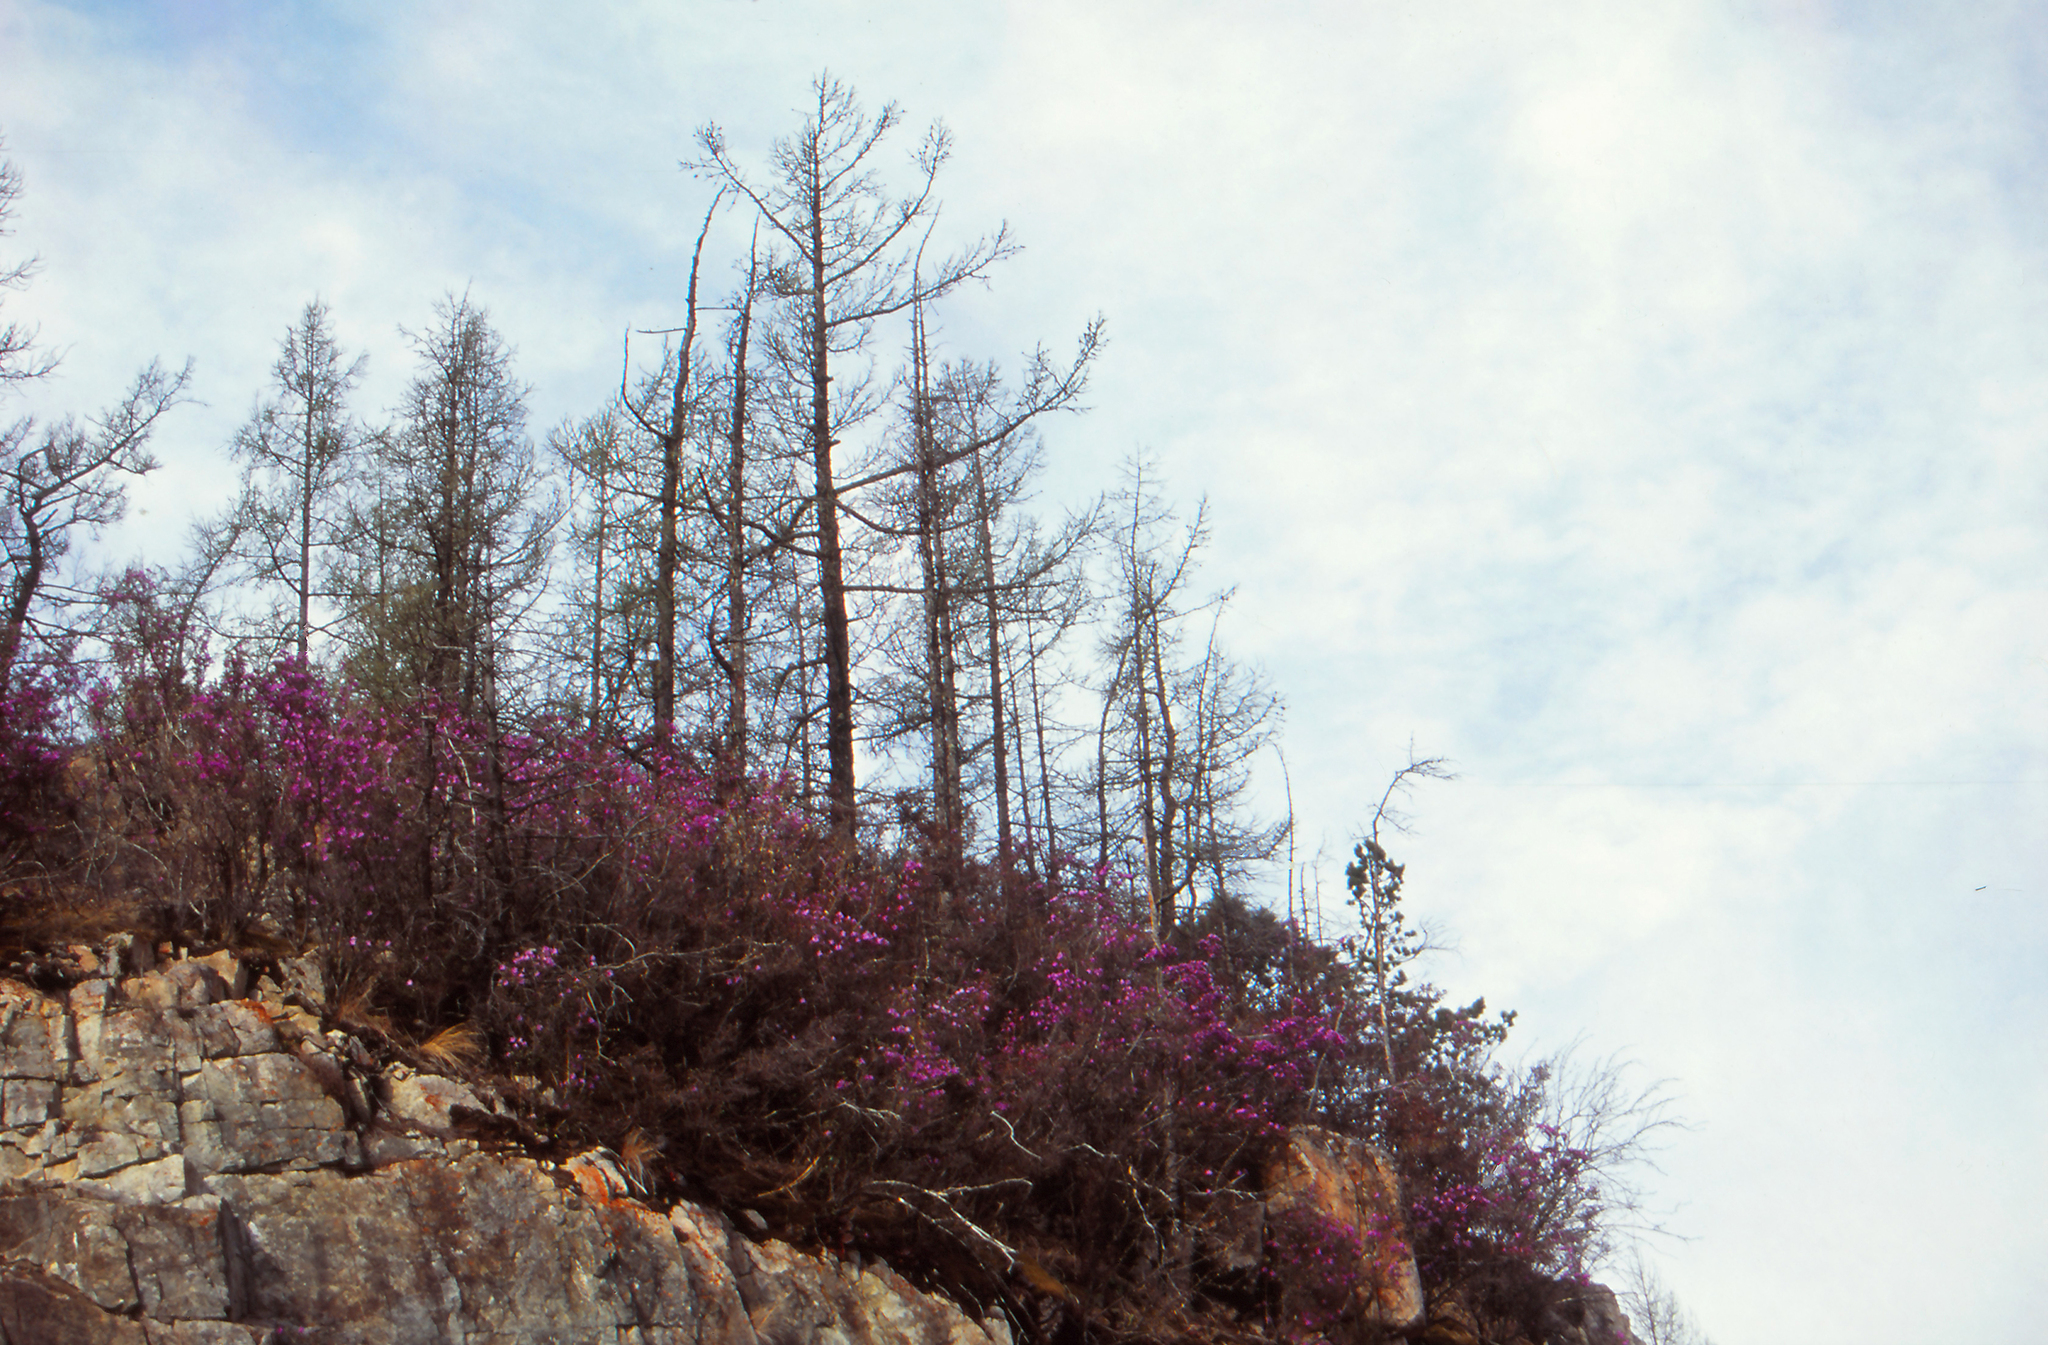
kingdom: Plantae
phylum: Tracheophyta
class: Magnoliopsida
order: Ericales
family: Ericaceae
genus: Rhododendron
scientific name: Rhododendron dauricum
